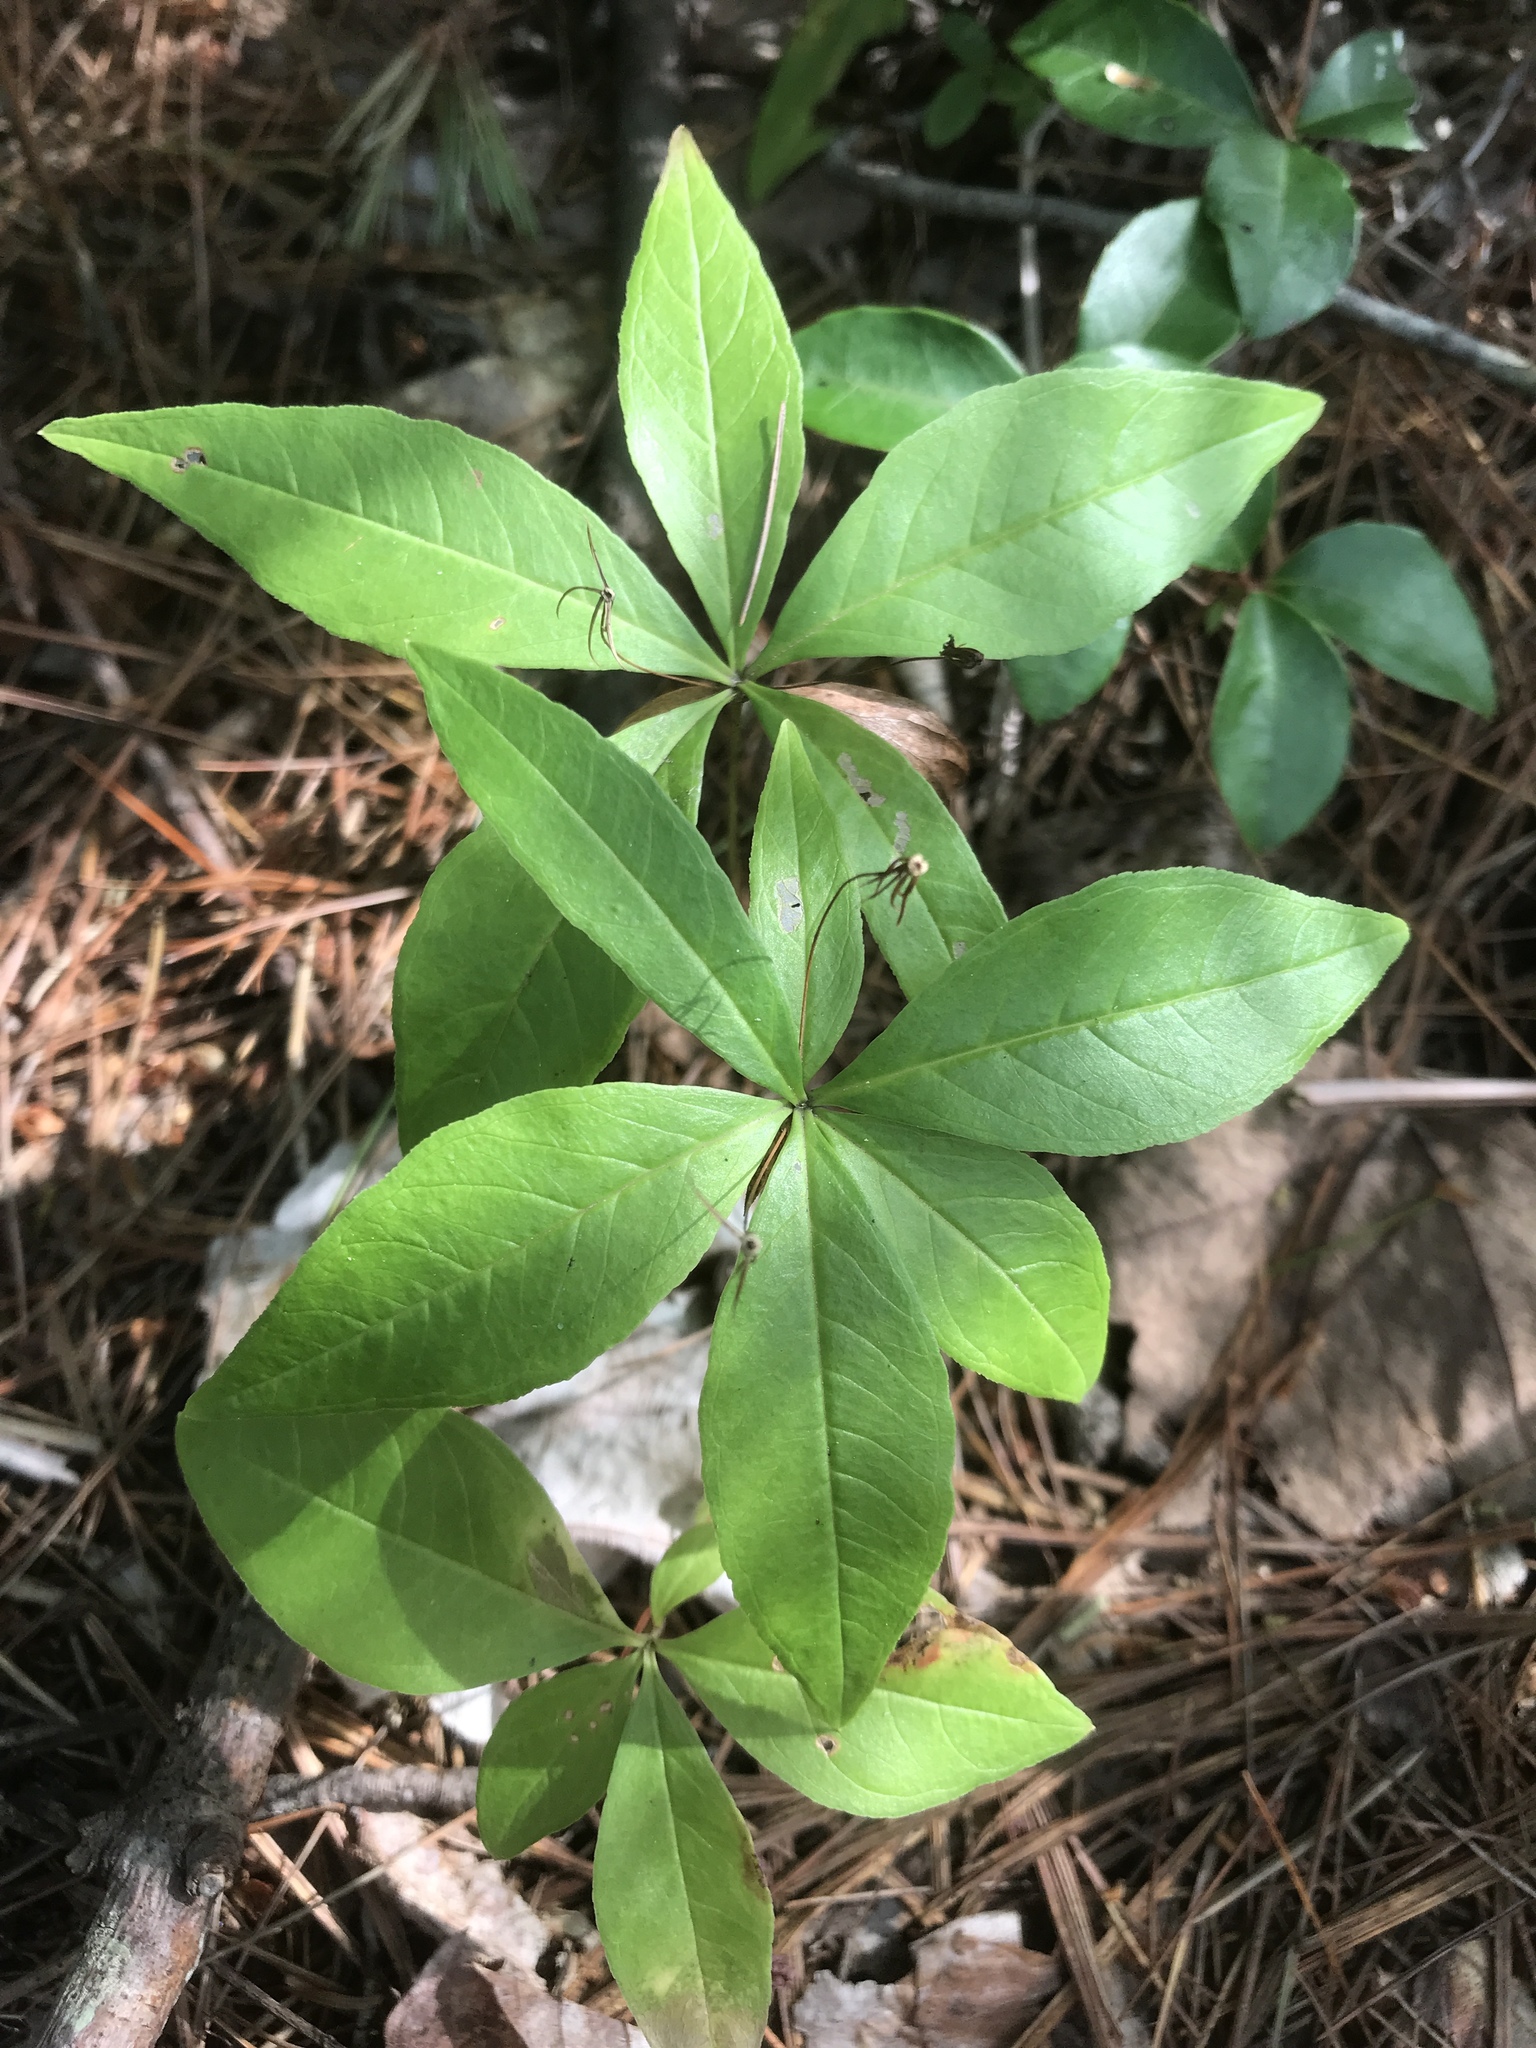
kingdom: Plantae
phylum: Tracheophyta
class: Magnoliopsida
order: Ericales
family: Primulaceae
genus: Lysimachia
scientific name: Lysimachia borealis
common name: American starflower
